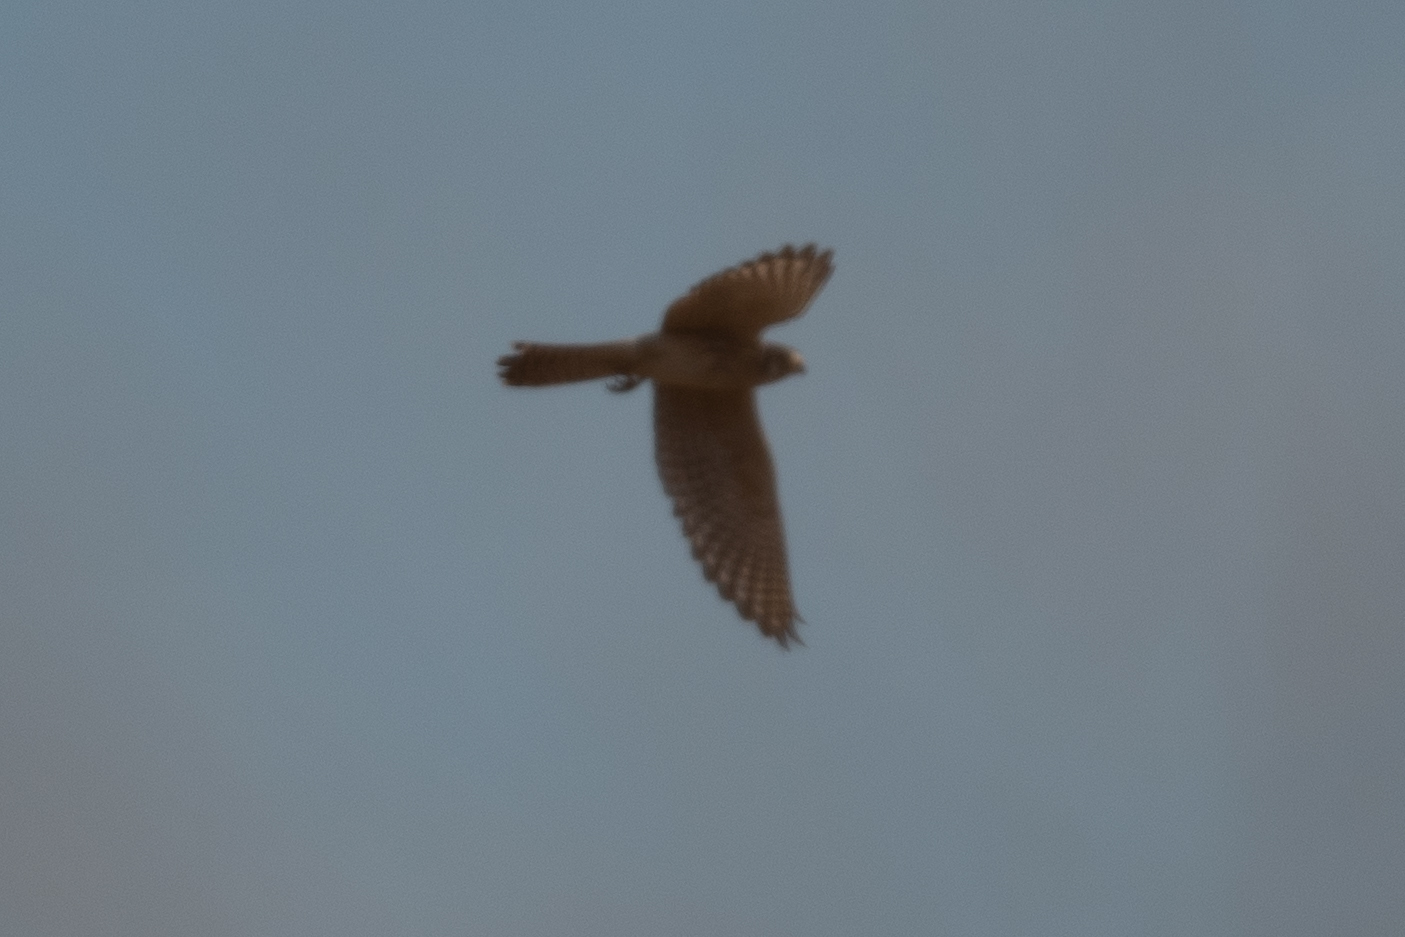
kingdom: Animalia
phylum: Chordata
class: Aves
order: Falconiformes
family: Falconidae
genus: Falco
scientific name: Falco sparverius
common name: American kestrel
